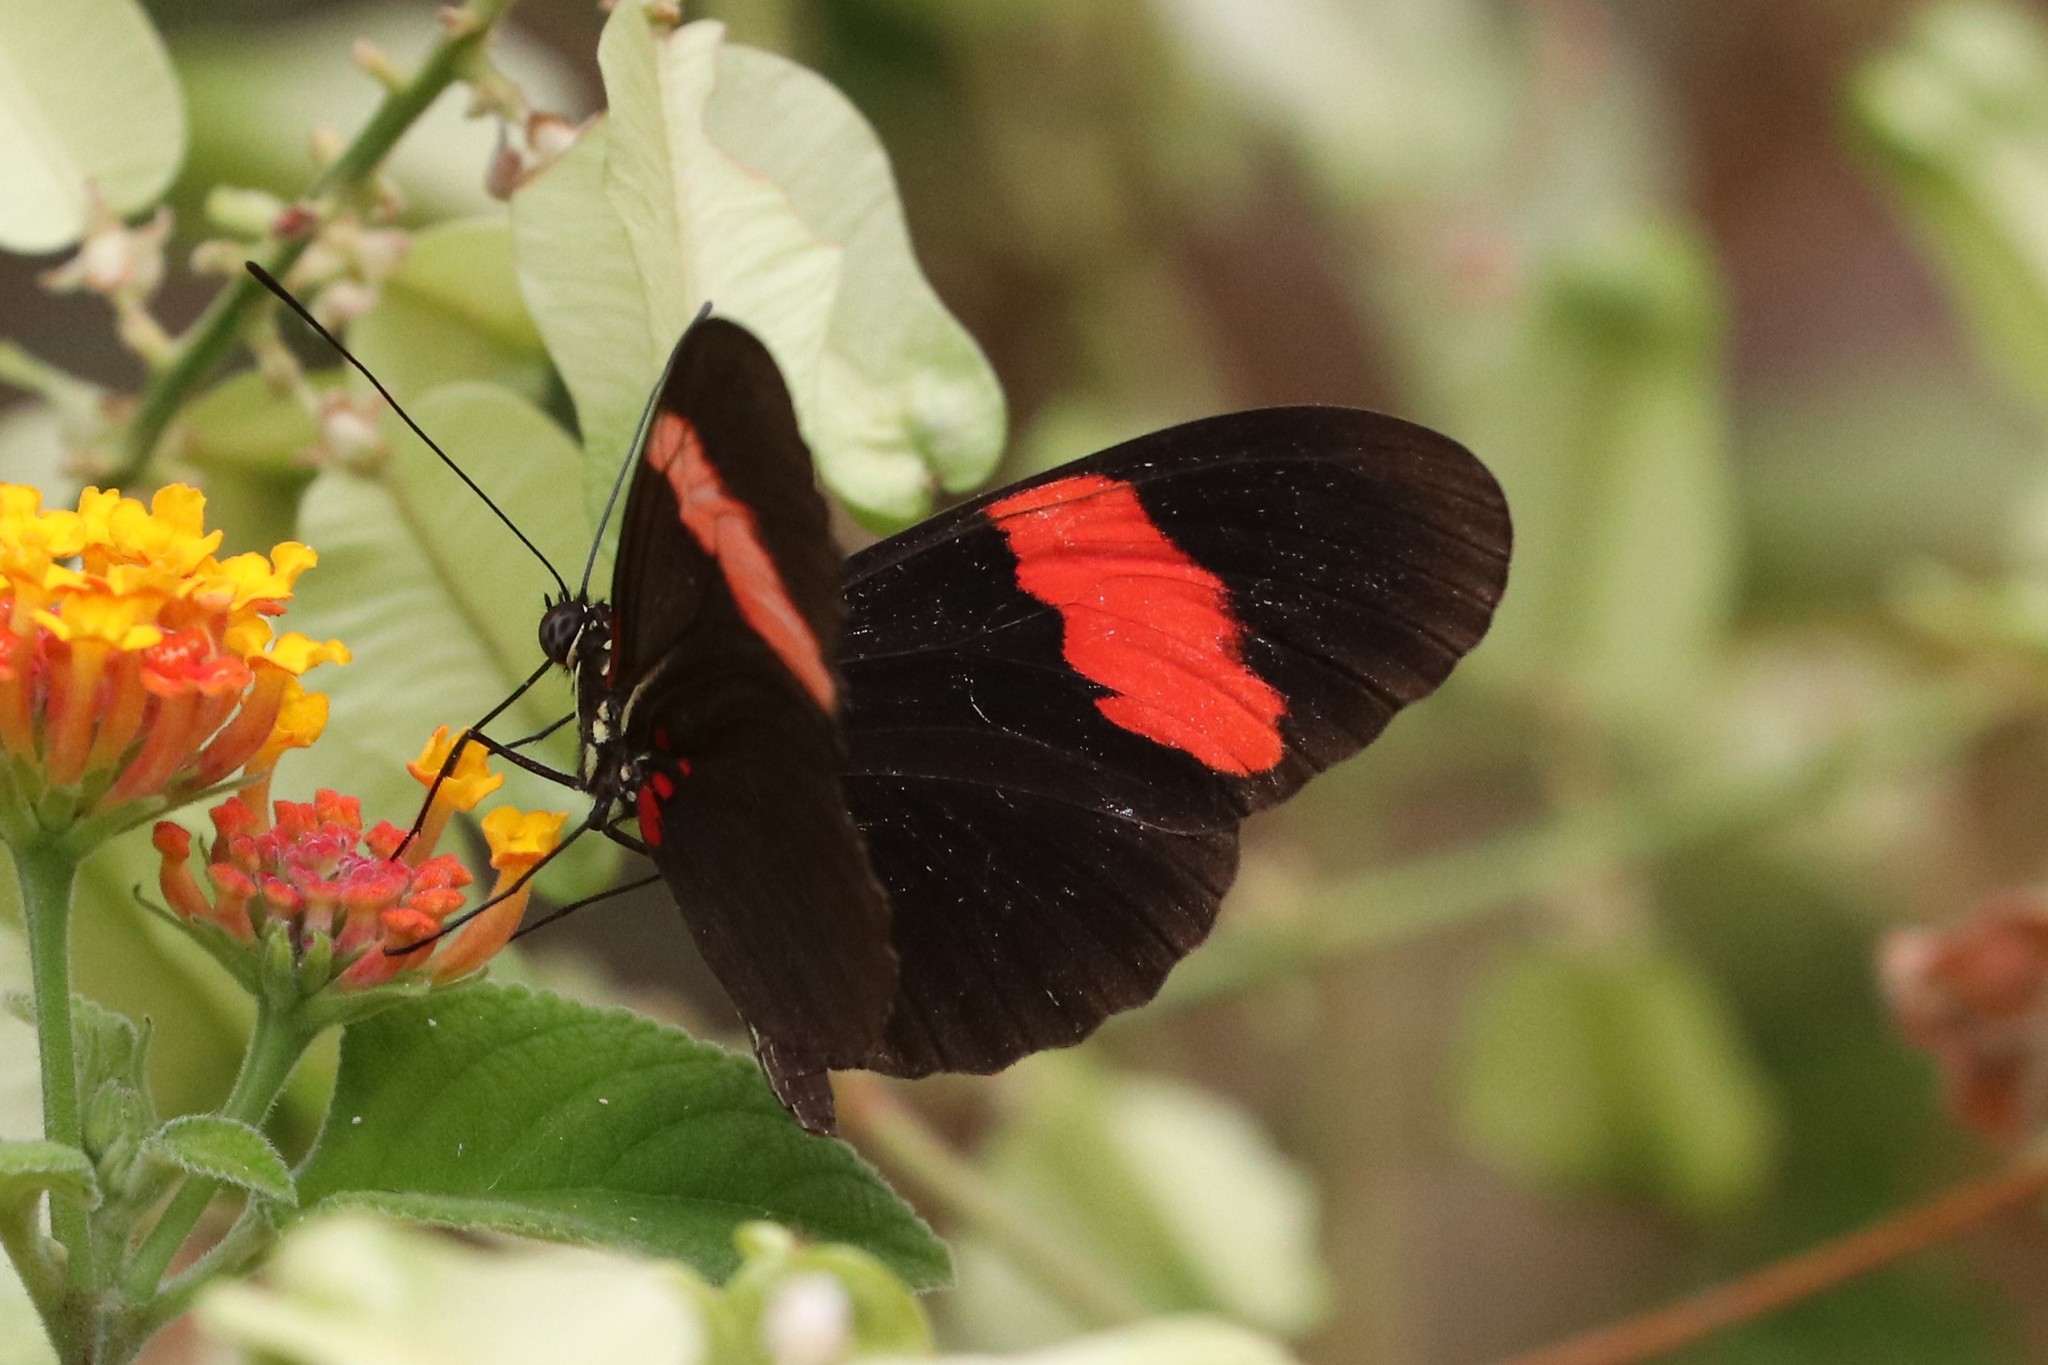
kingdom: Animalia
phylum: Arthropoda
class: Insecta
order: Lepidoptera
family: Nymphalidae
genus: Heliconius
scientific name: Heliconius erato
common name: Common patch longwing
